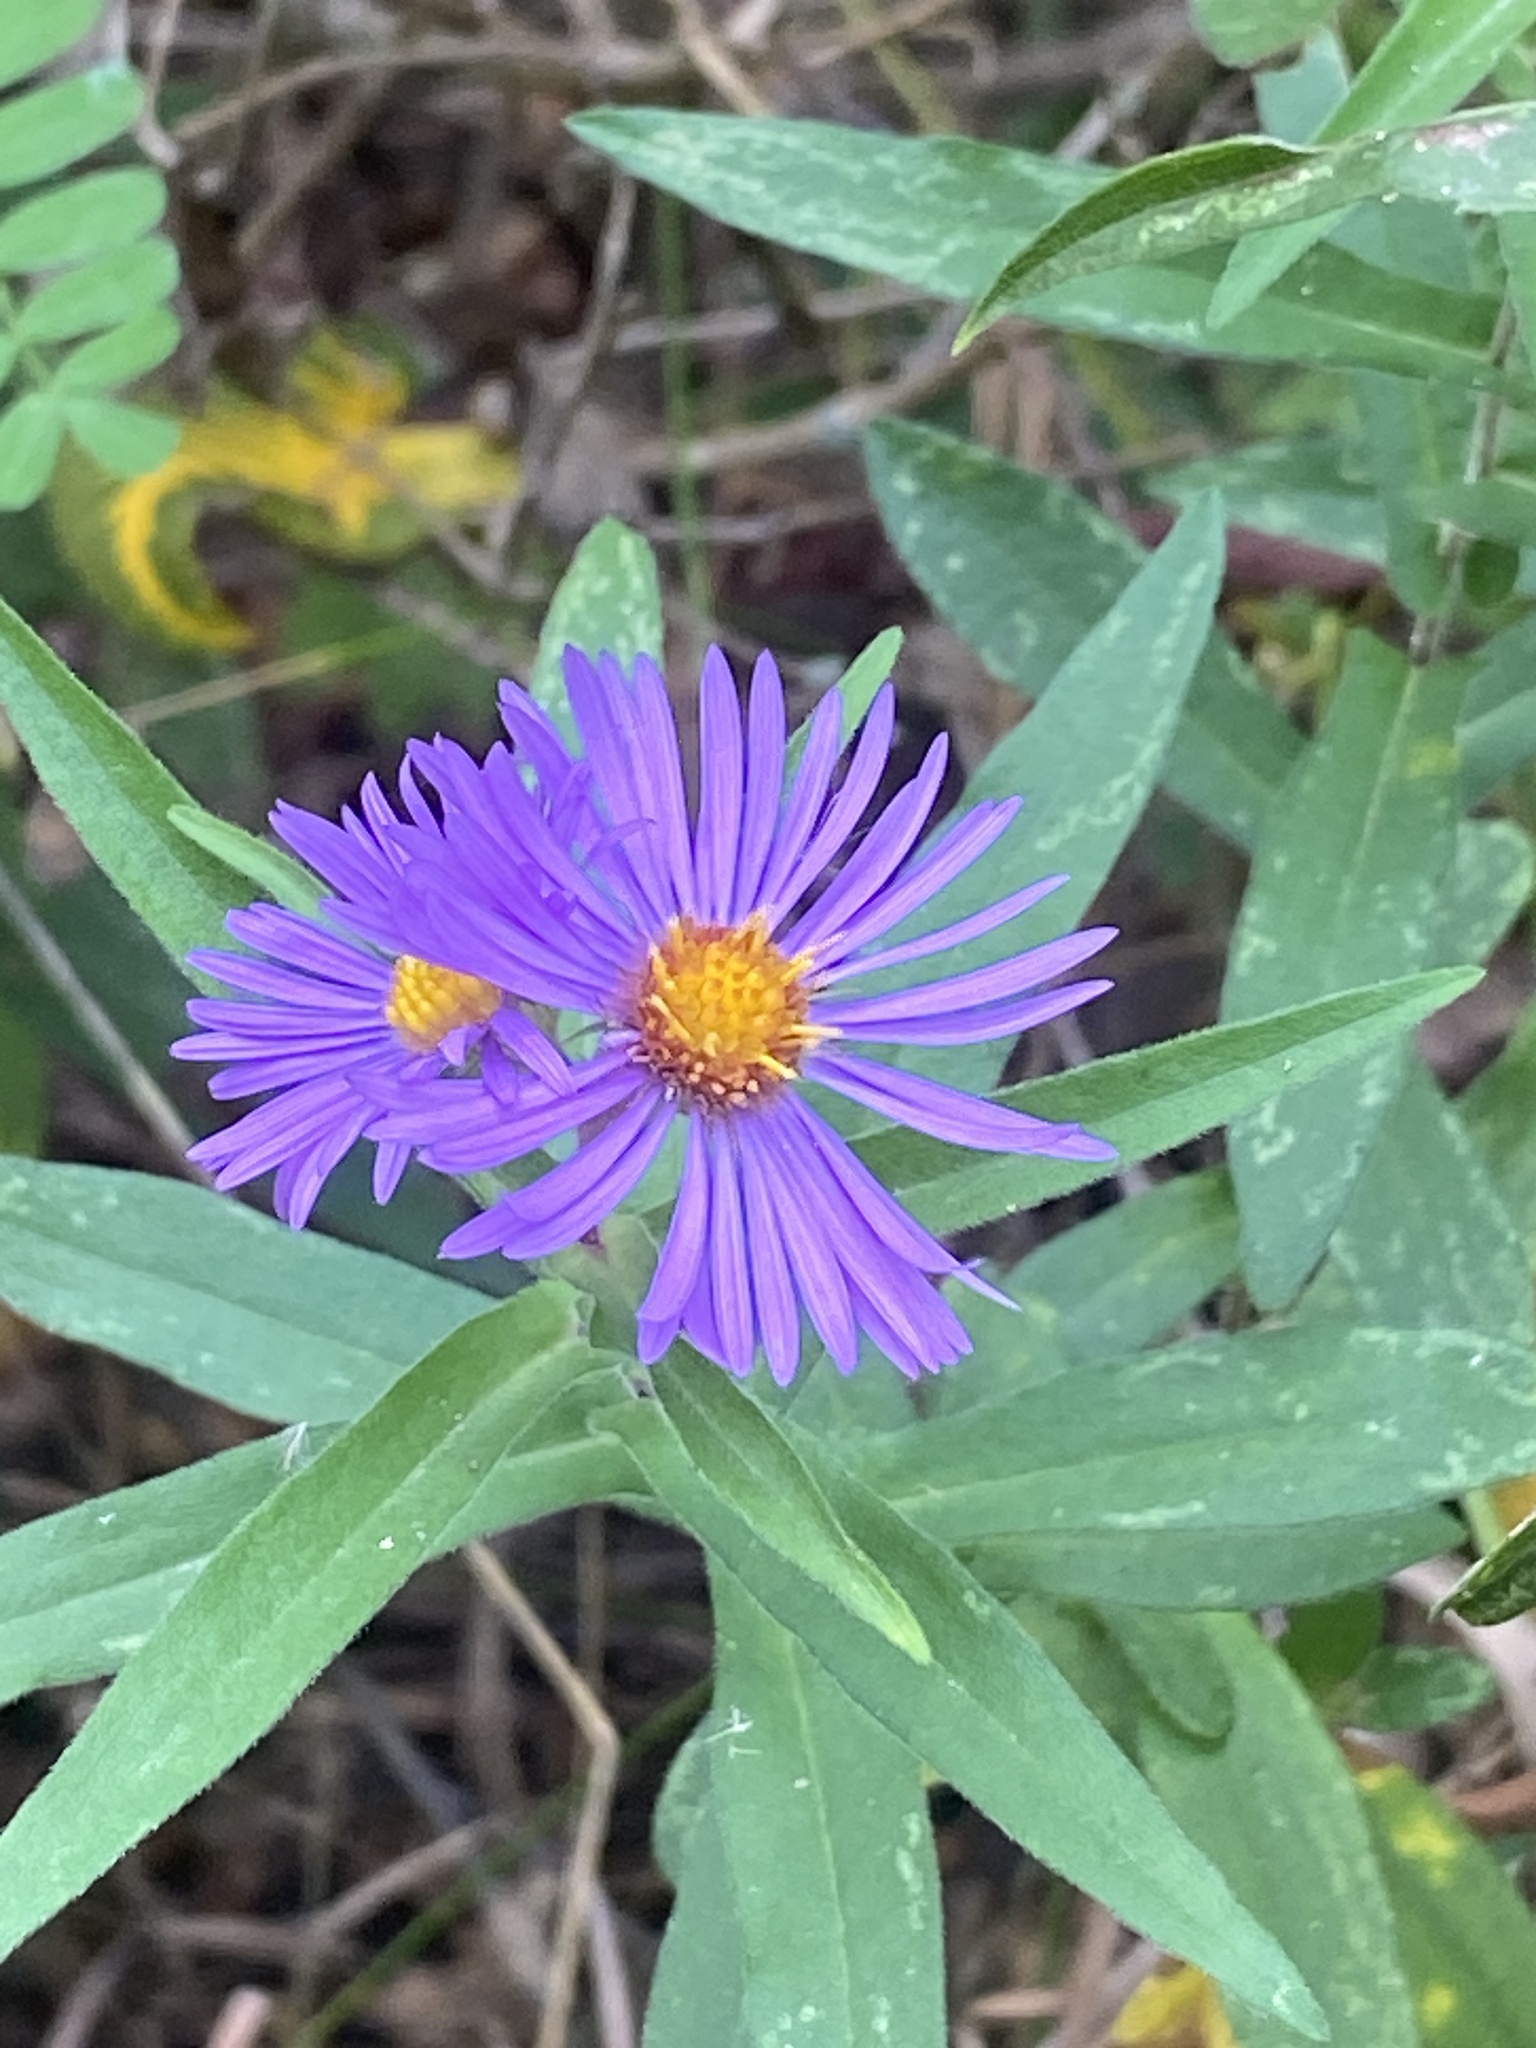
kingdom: Plantae
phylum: Tracheophyta
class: Magnoliopsida
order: Asterales
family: Asteraceae
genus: Symphyotrichum
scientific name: Symphyotrichum novae-angliae
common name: Michaelmas daisy
